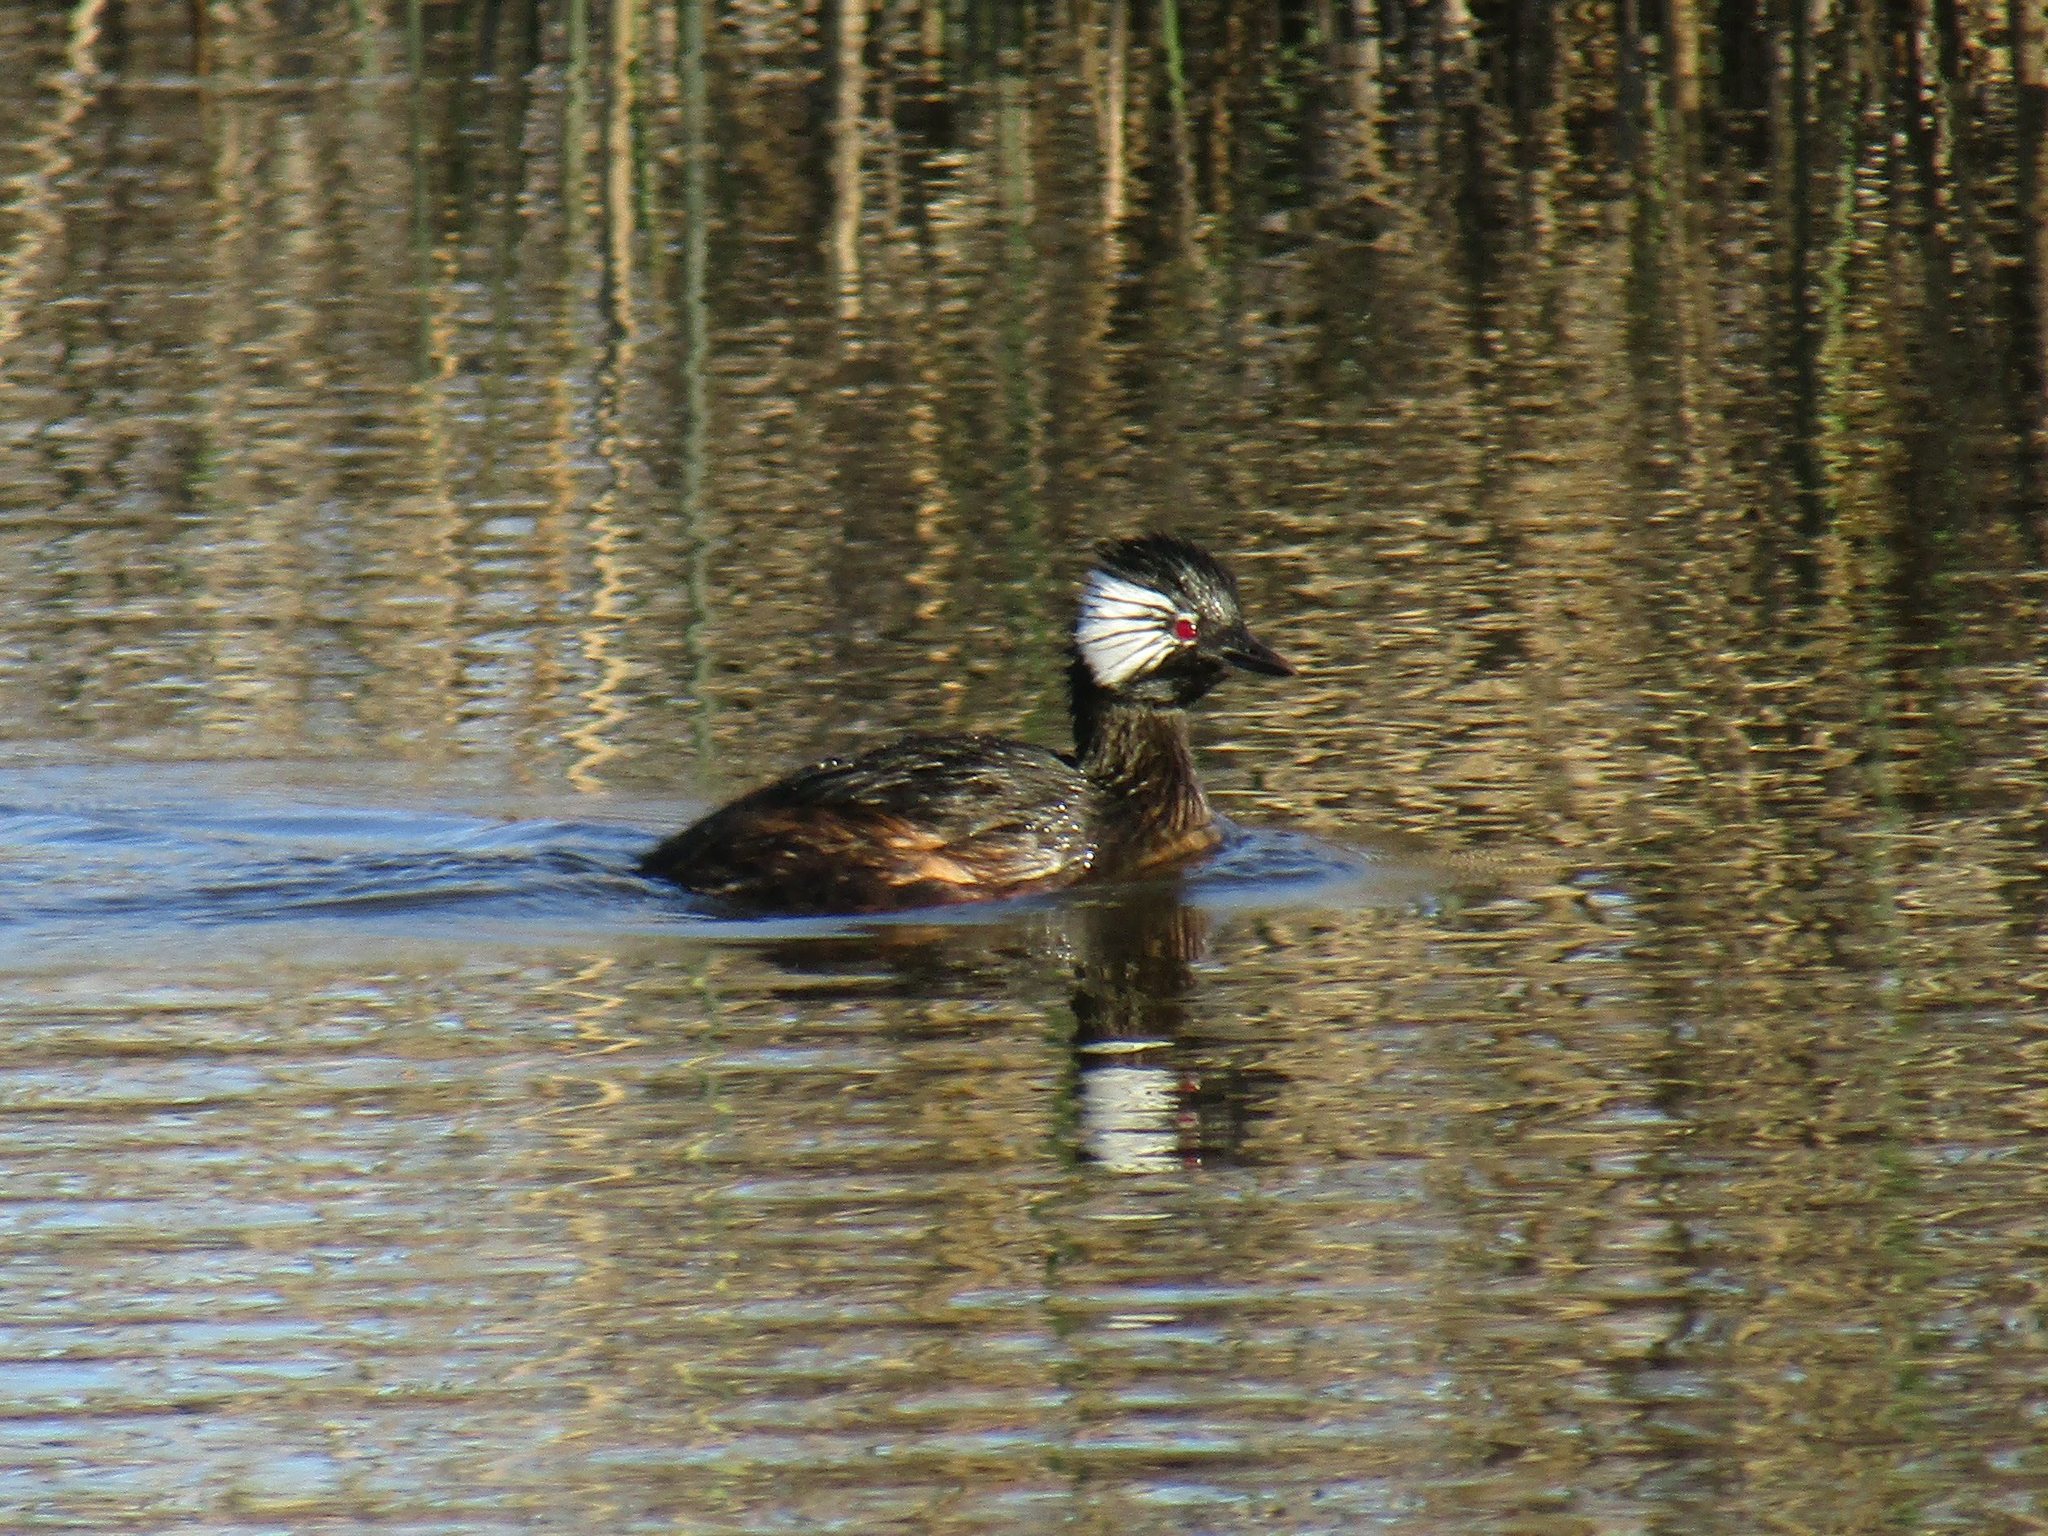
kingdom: Animalia
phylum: Chordata
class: Aves
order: Podicipediformes
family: Podicipedidae
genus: Rollandia
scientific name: Rollandia rolland
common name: White-tufted grebe
